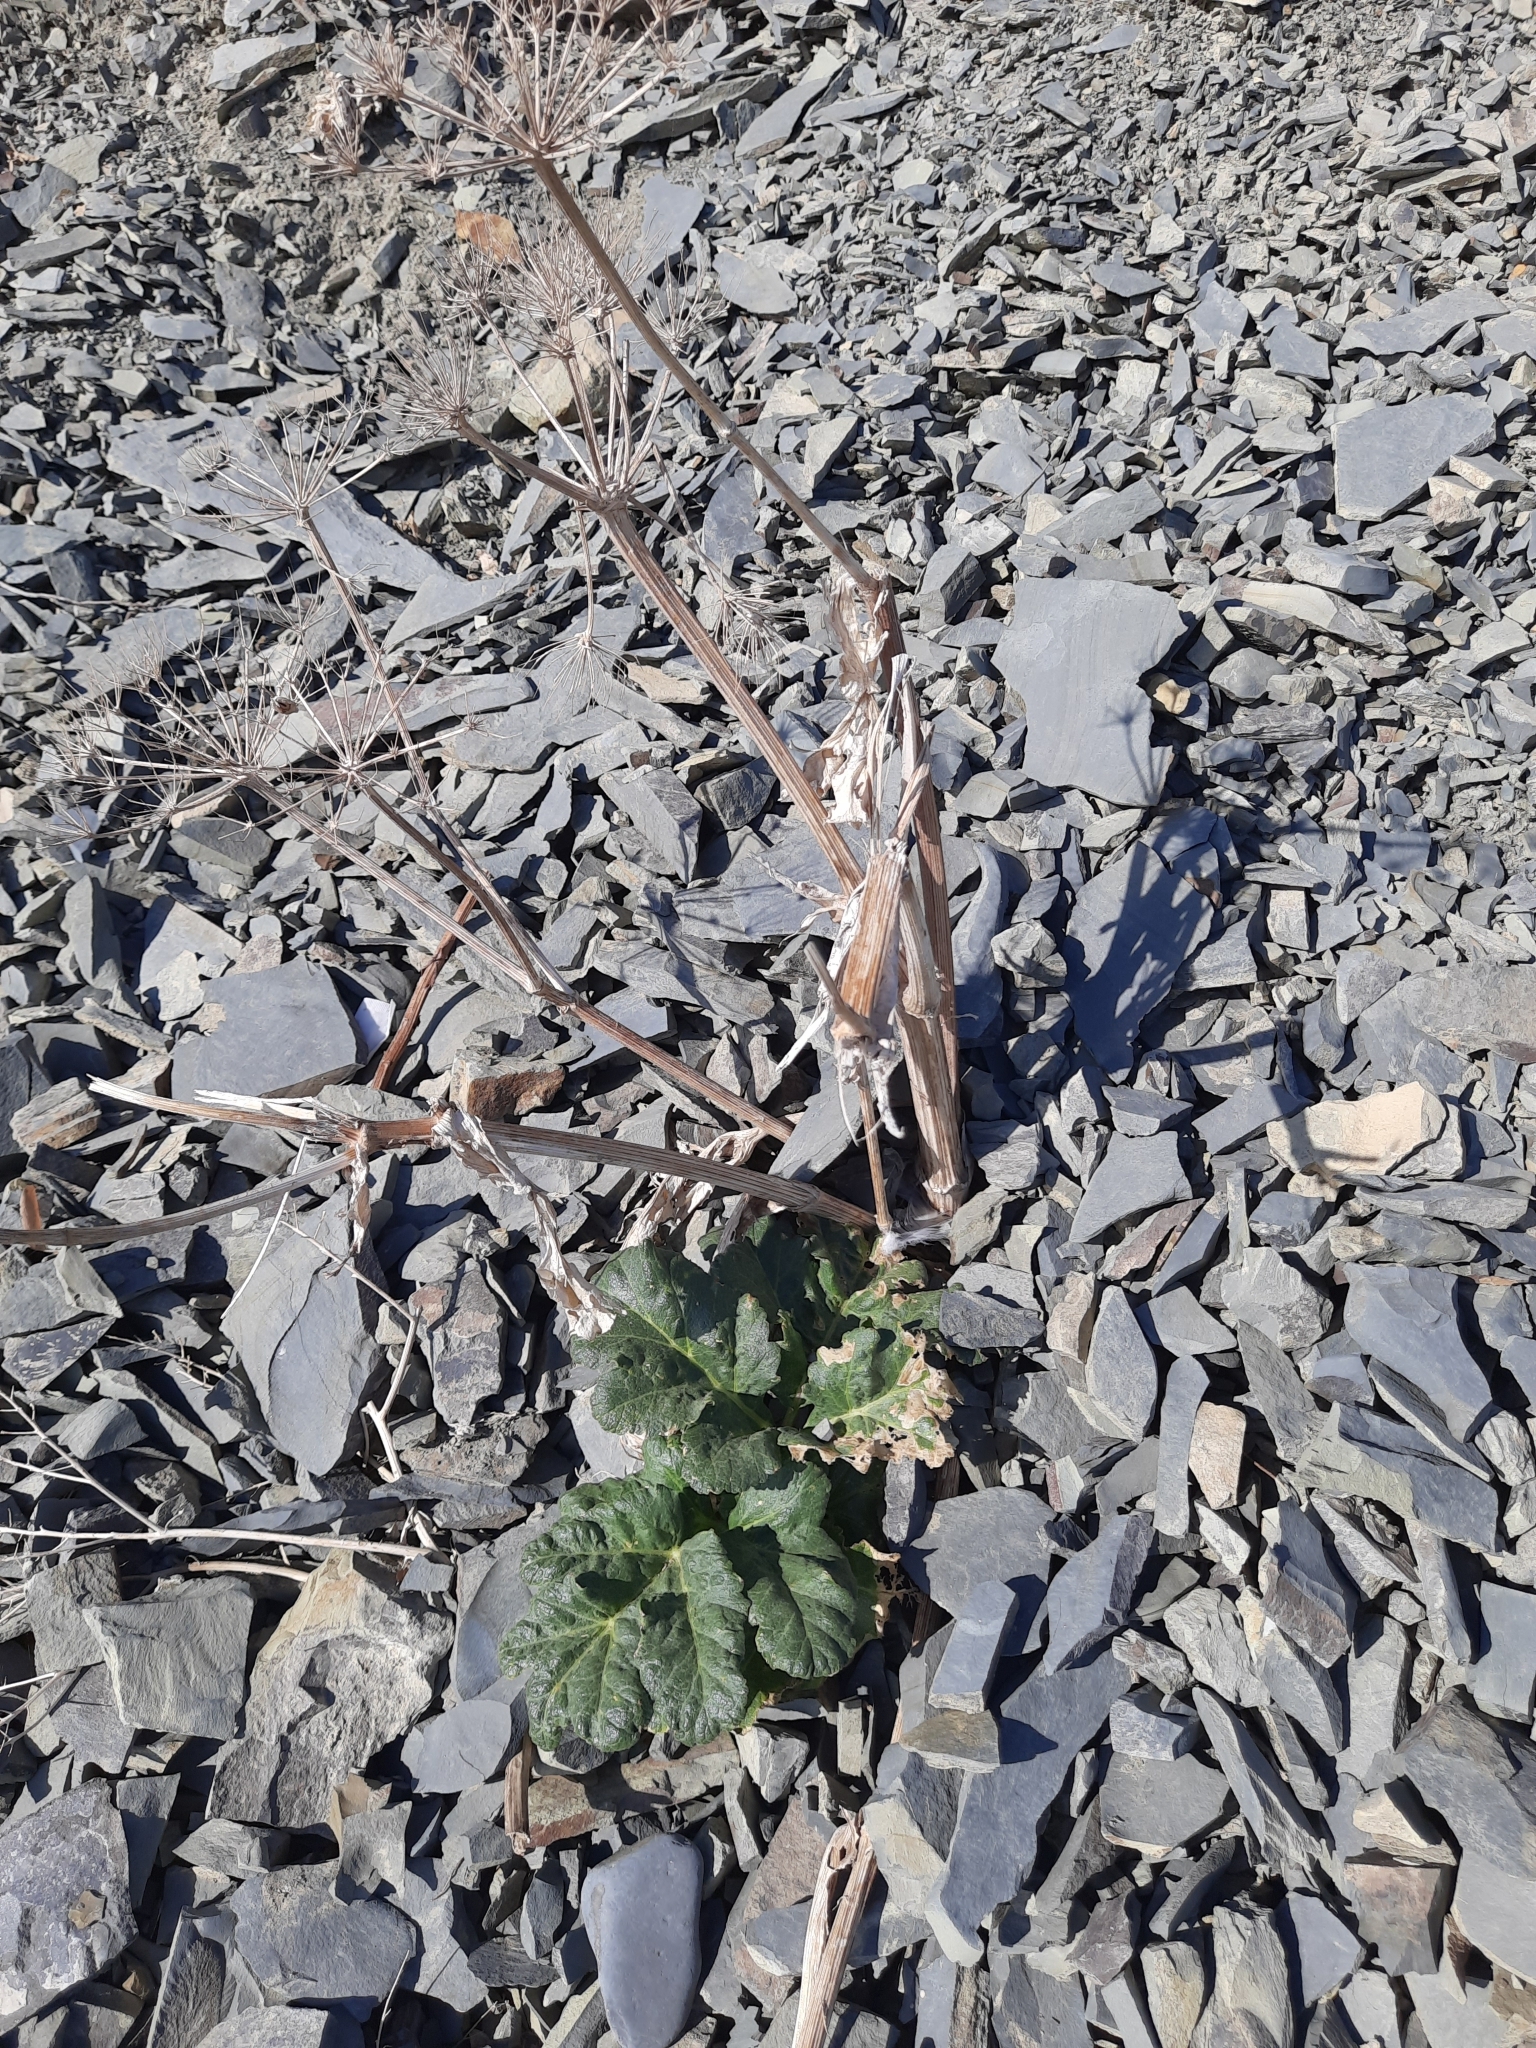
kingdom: Plantae
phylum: Tracheophyta
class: Magnoliopsida
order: Apiales
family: Apiaceae
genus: Heracleum
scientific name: Heracleum stevenii
